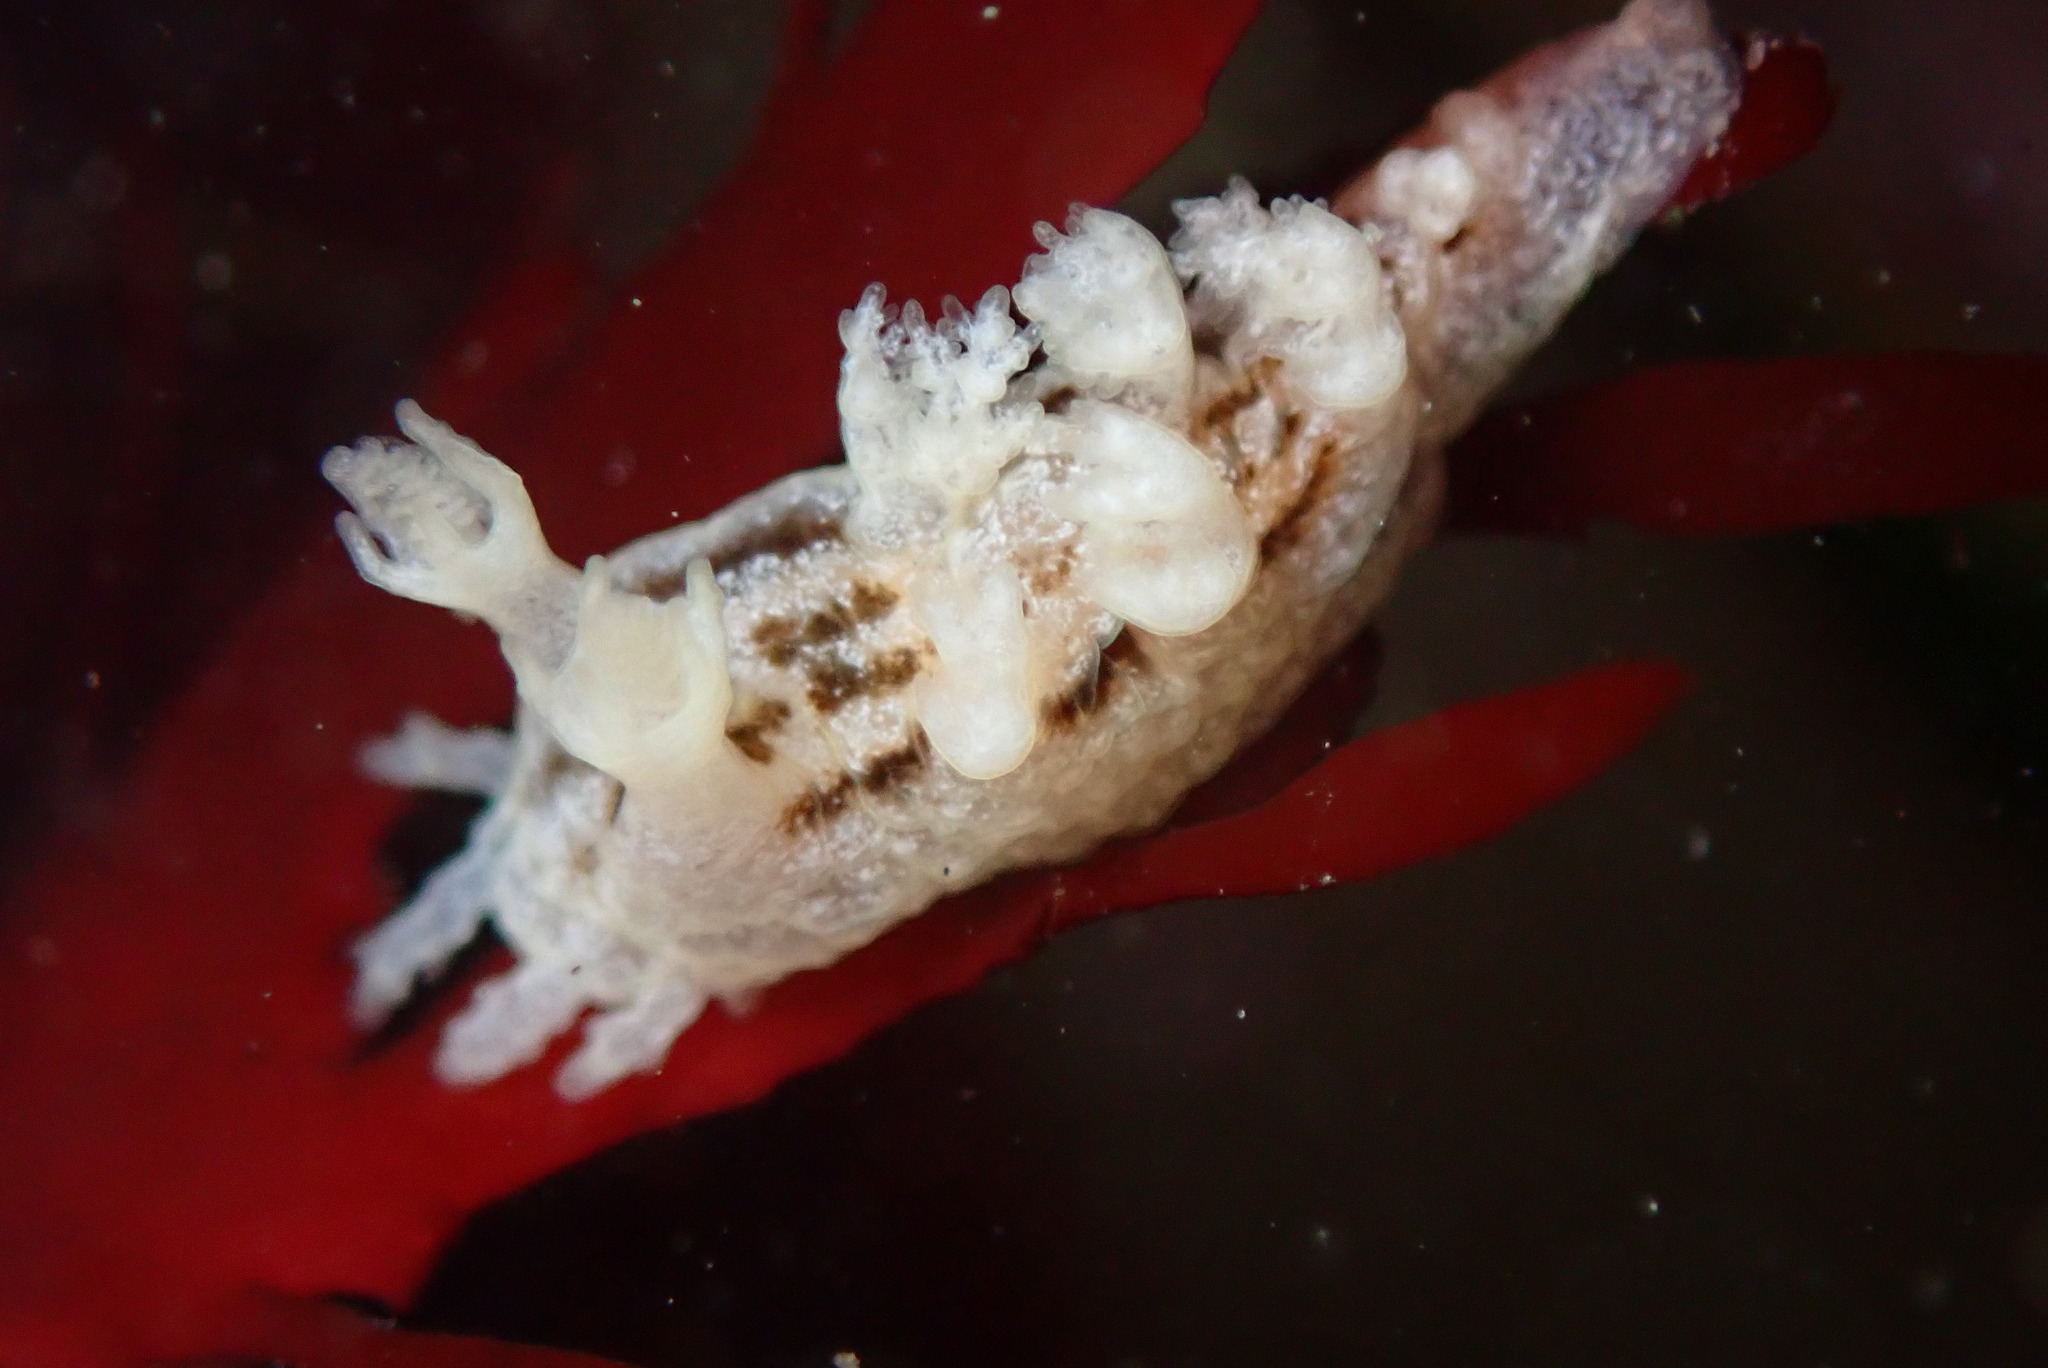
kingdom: Animalia
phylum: Mollusca
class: Gastropoda
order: Nudibranchia
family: Dendronotidae
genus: Dendronotus
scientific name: Dendronotus subramosus
